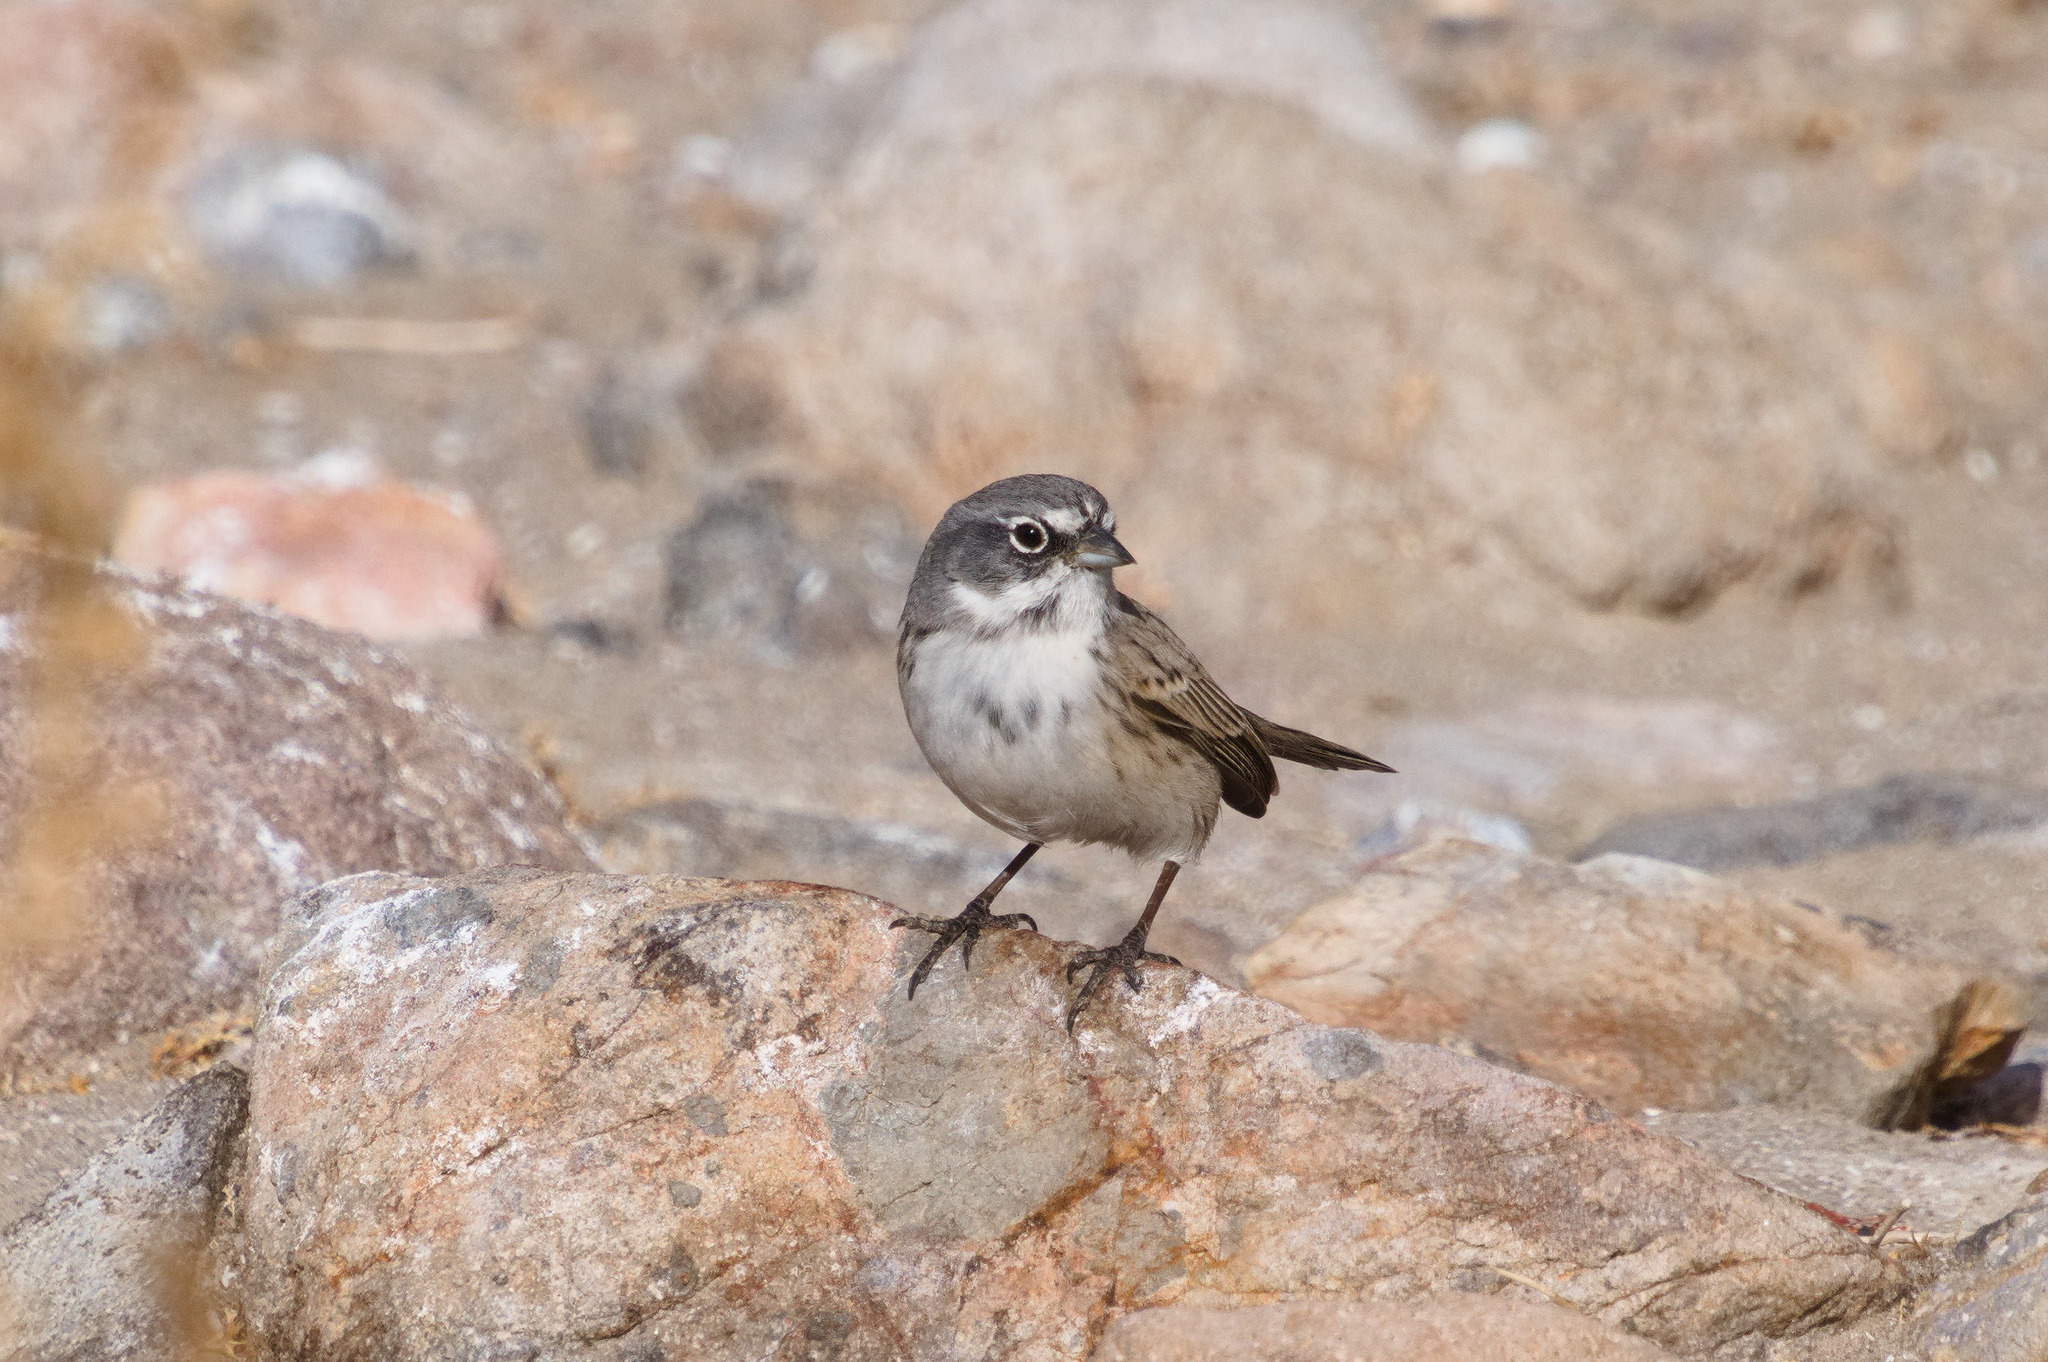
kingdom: Animalia
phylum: Chordata
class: Aves
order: Passeriformes
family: Passerellidae
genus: Artemisiospiza
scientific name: Artemisiospiza nevadensis
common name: Sagebrush sparrow
